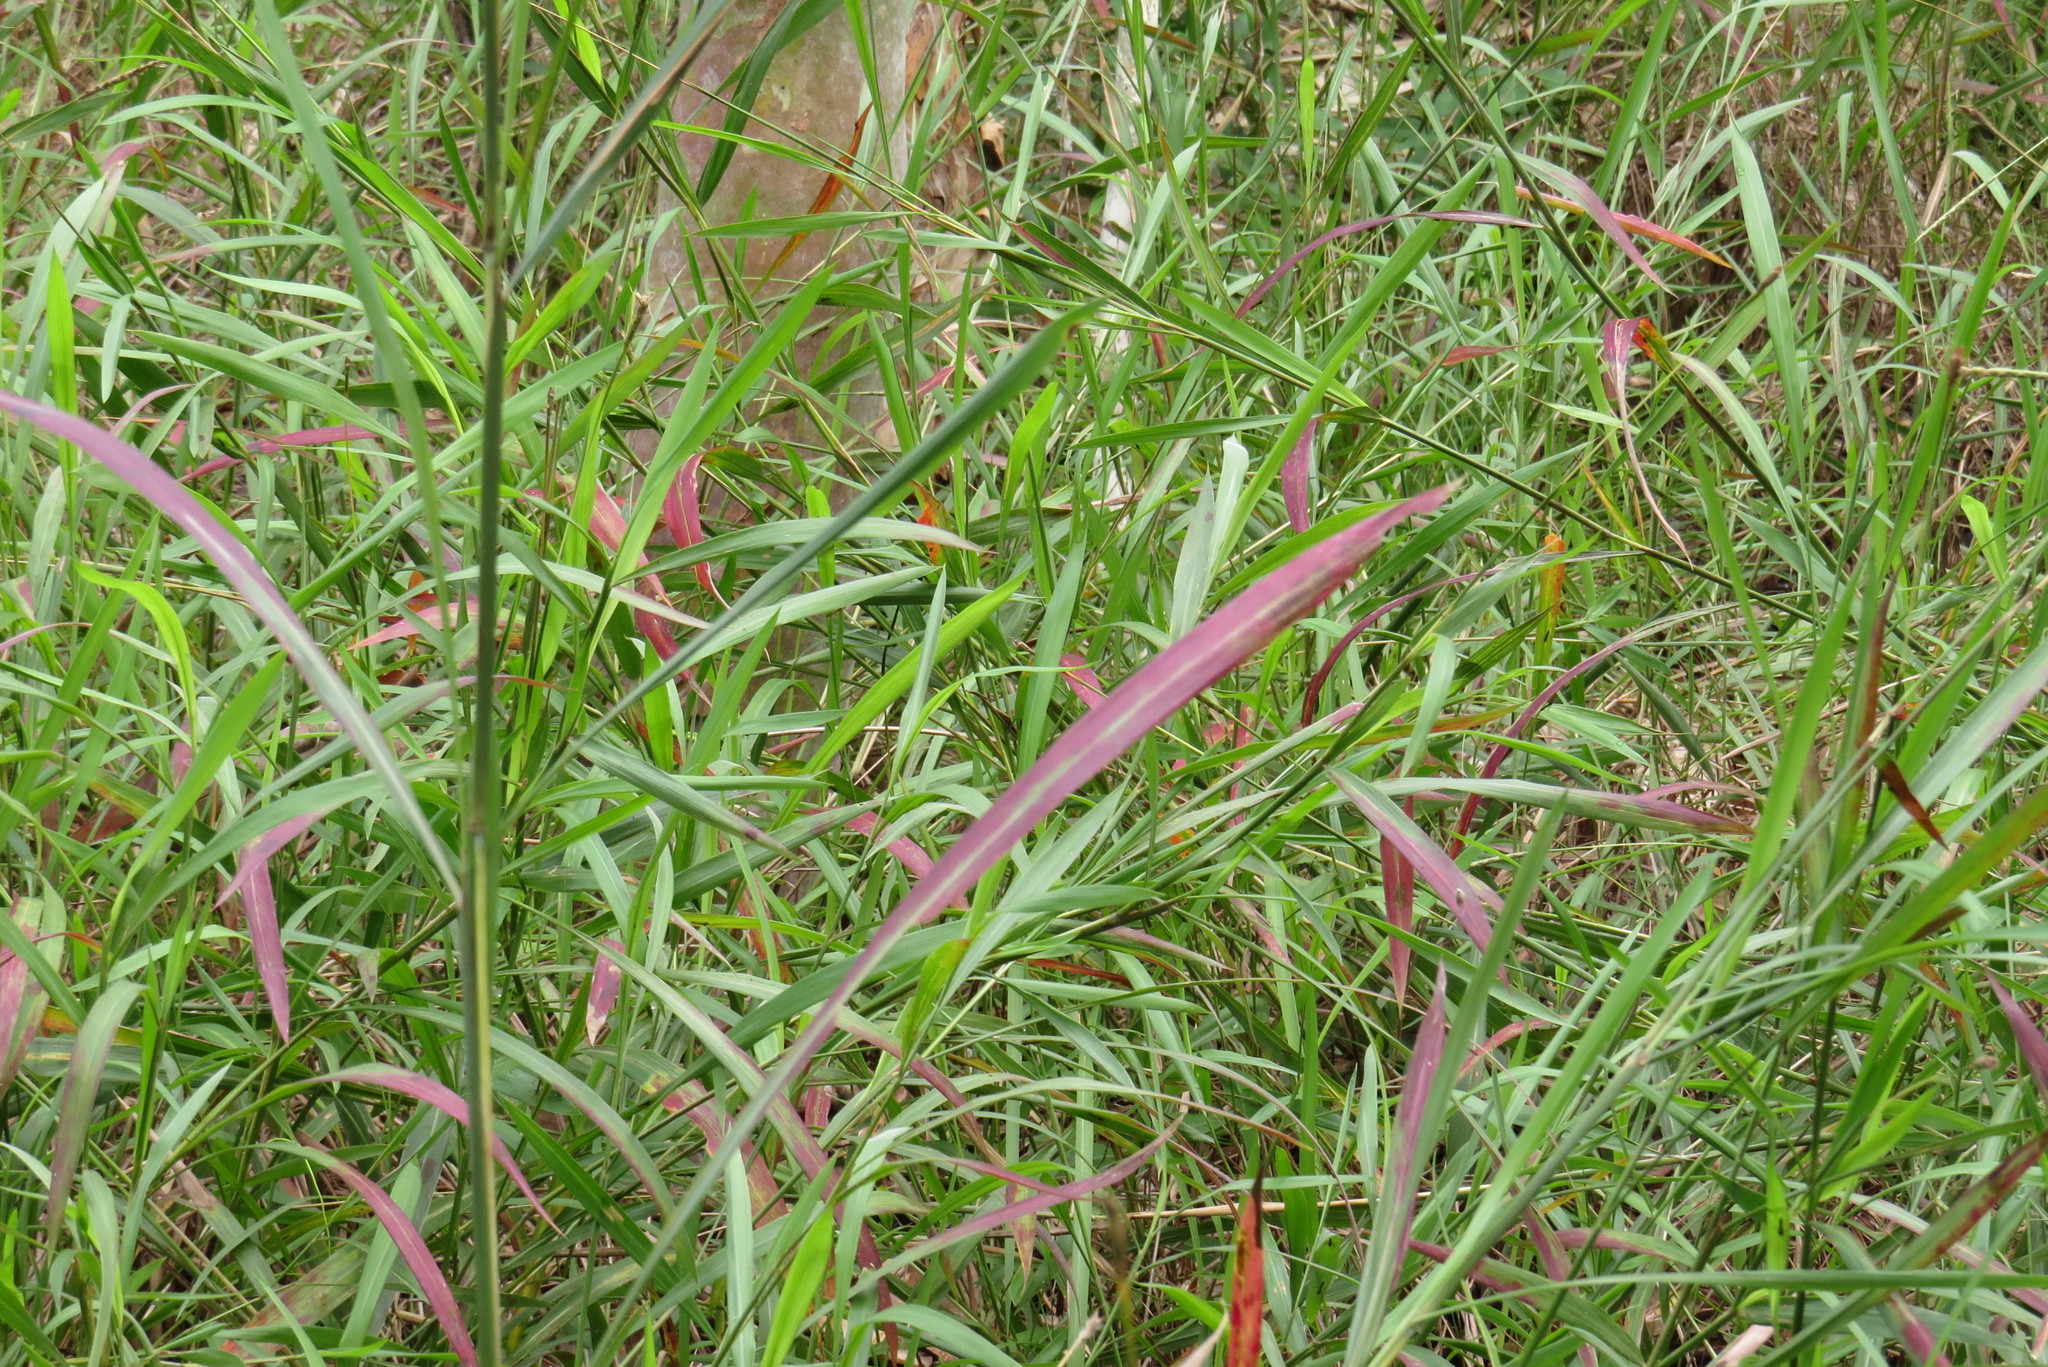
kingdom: Plantae
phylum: Tracheophyta
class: Liliopsida
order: Poales
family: Poaceae
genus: Ischaemum
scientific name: Ischaemum australe
